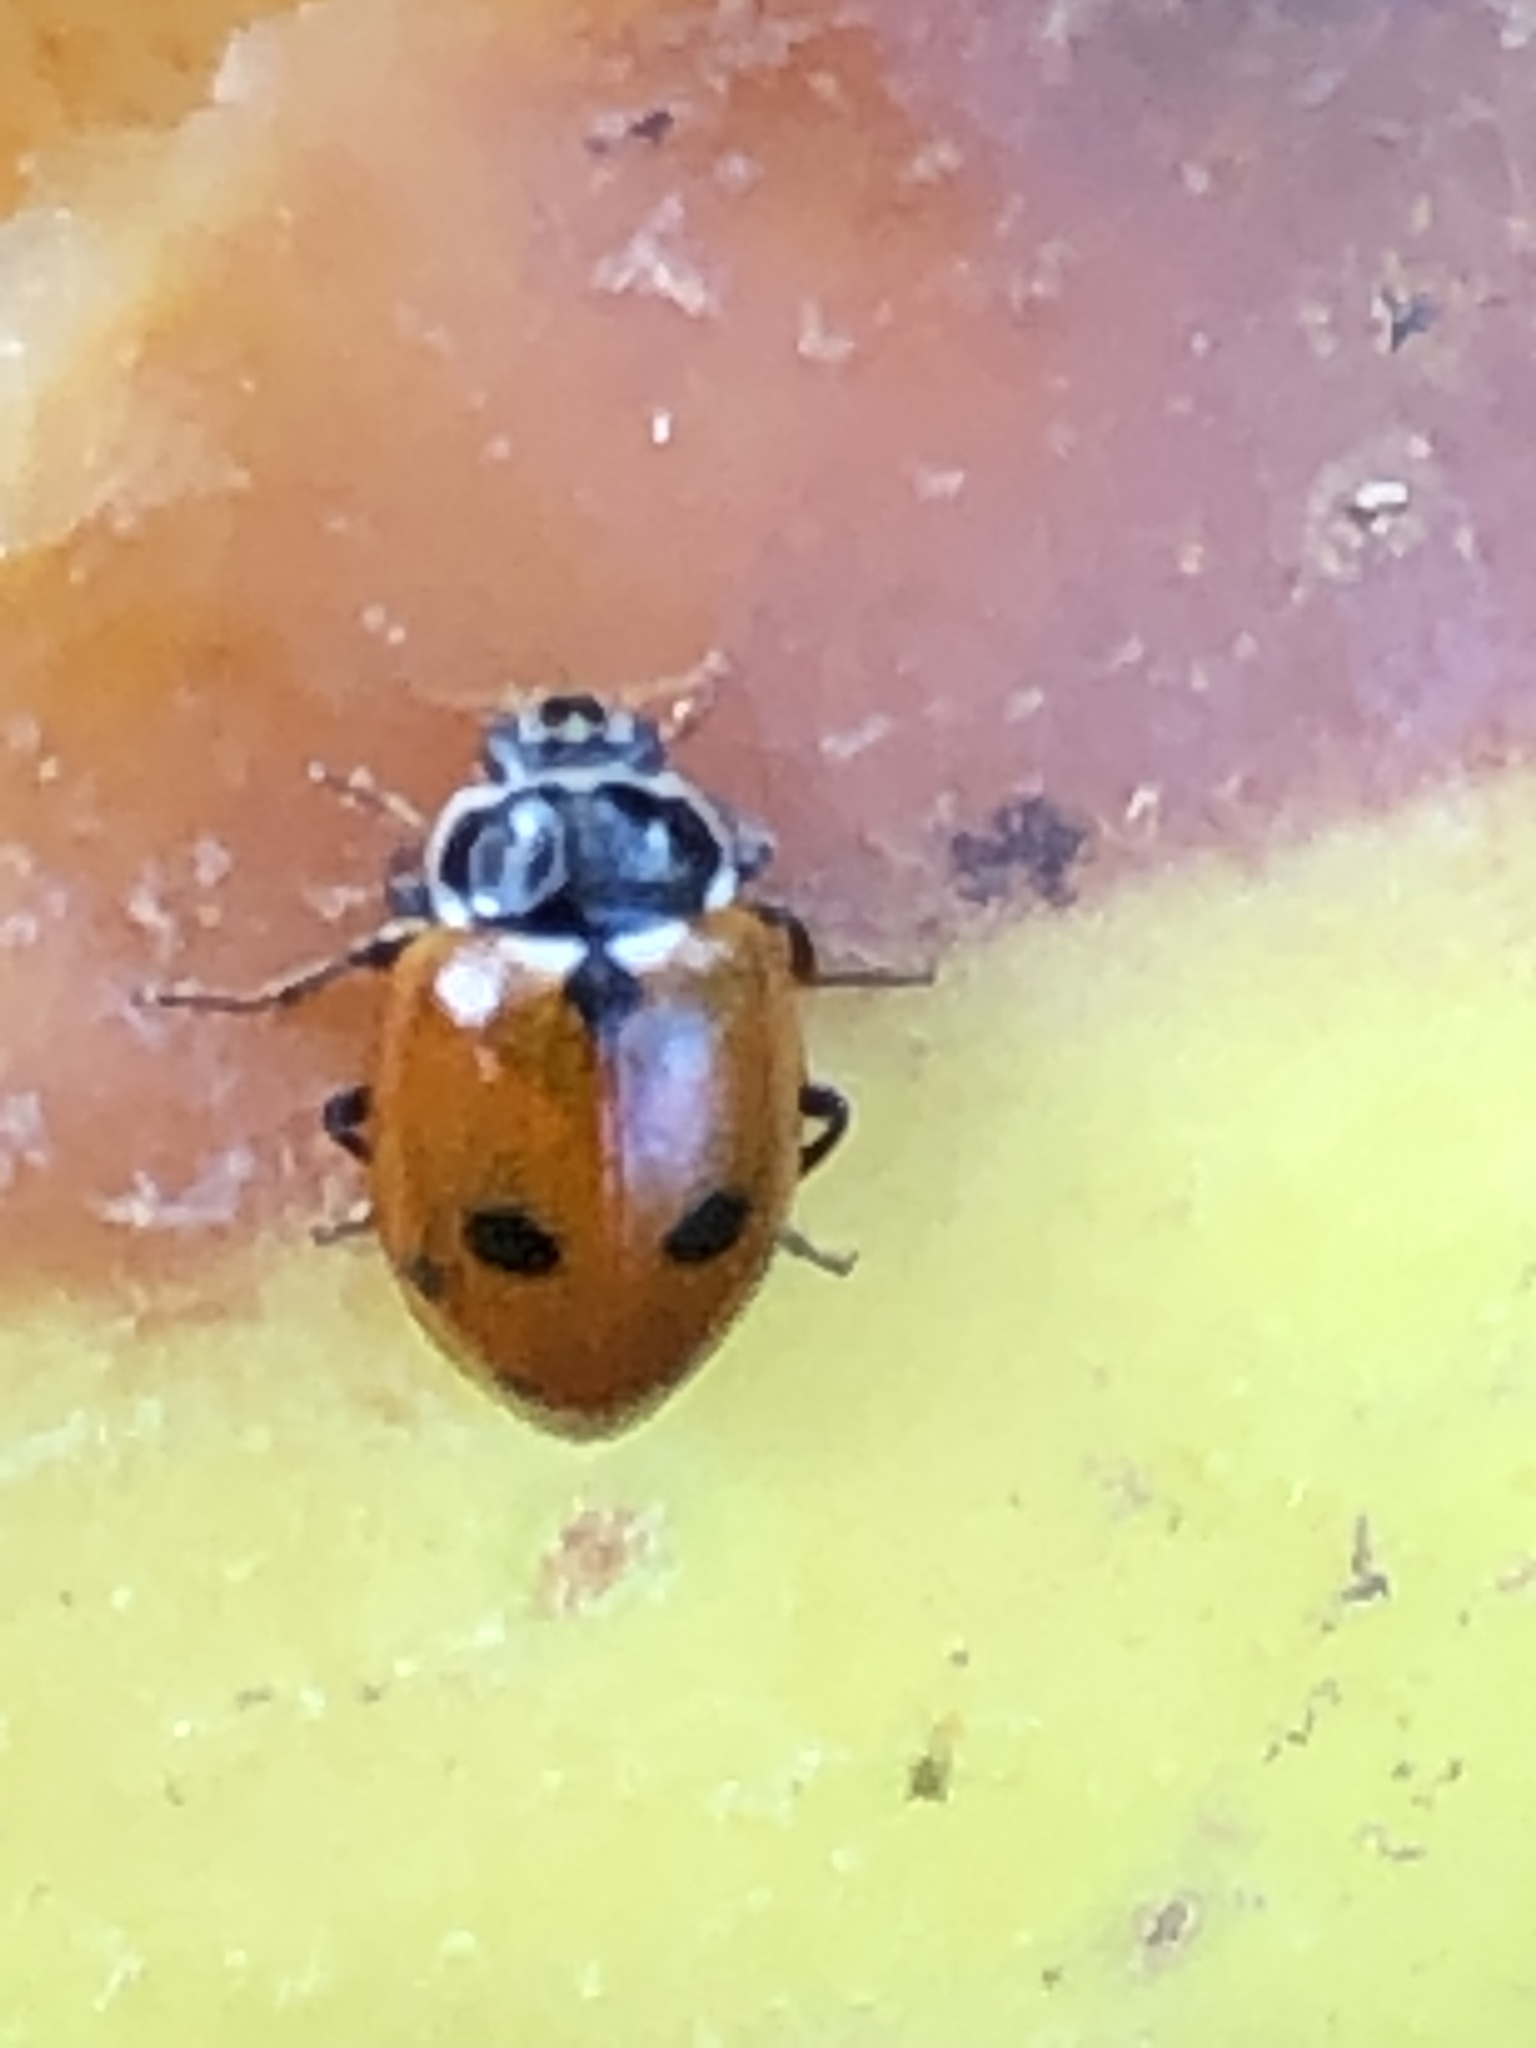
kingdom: Animalia
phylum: Arthropoda
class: Insecta
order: Coleoptera
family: Coccinellidae
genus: Hippodamia
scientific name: Hippodamia variegata
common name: Ladybird beetle
